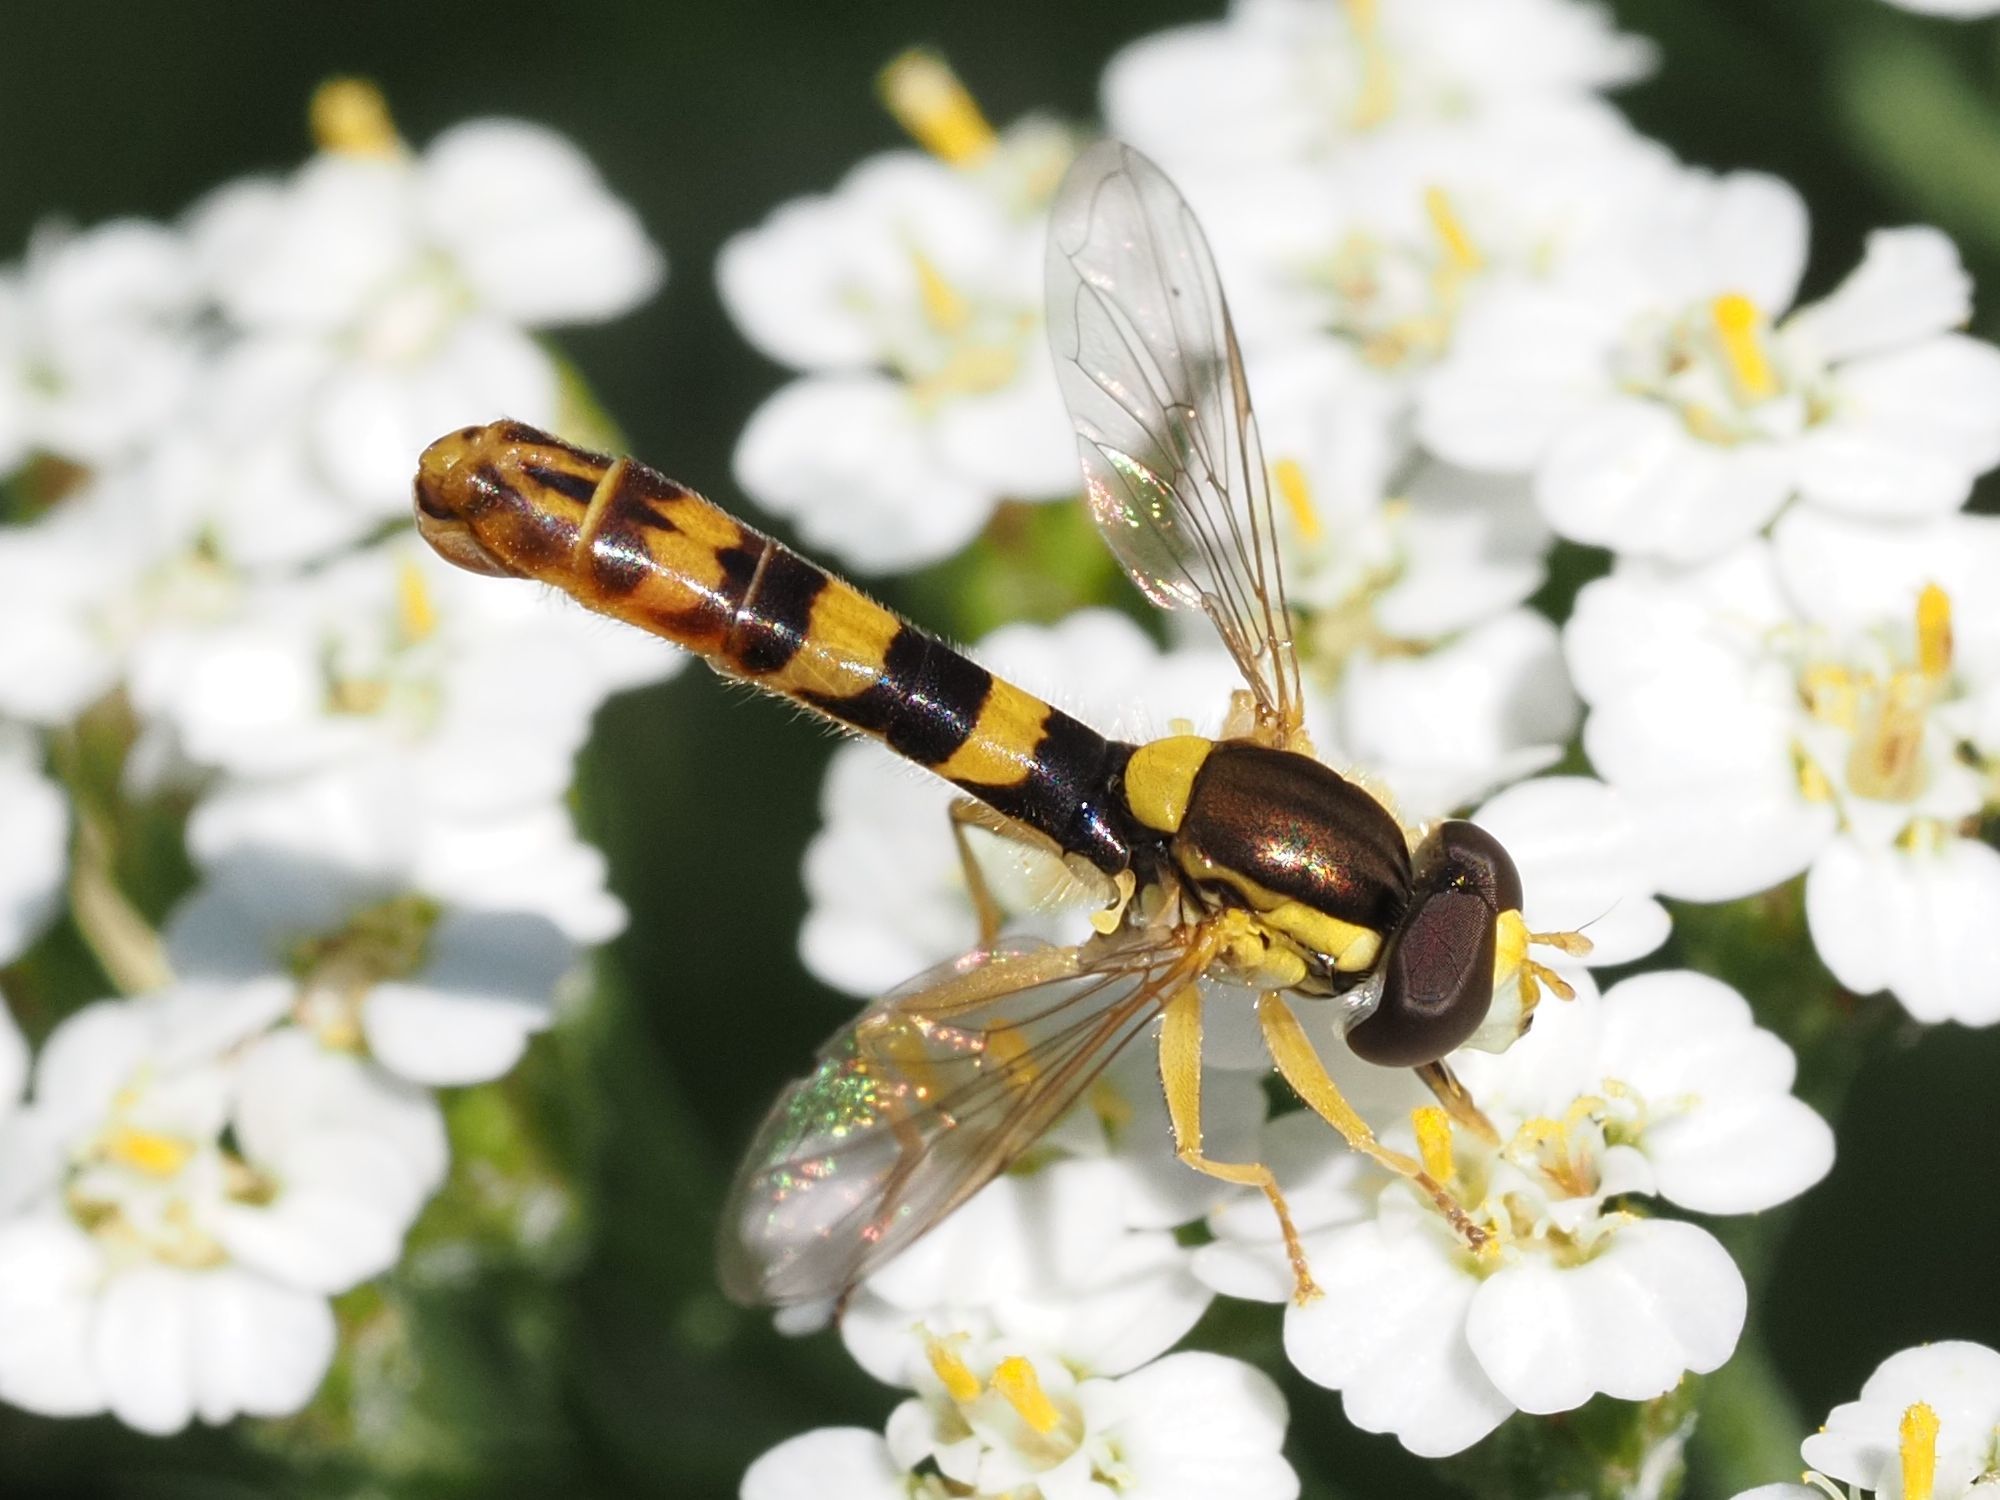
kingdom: Animalia
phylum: Arthropoda
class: Insecta
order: Diptera
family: Syrphidae
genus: Sphaerophoria
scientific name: Sphaerophoria scripta
